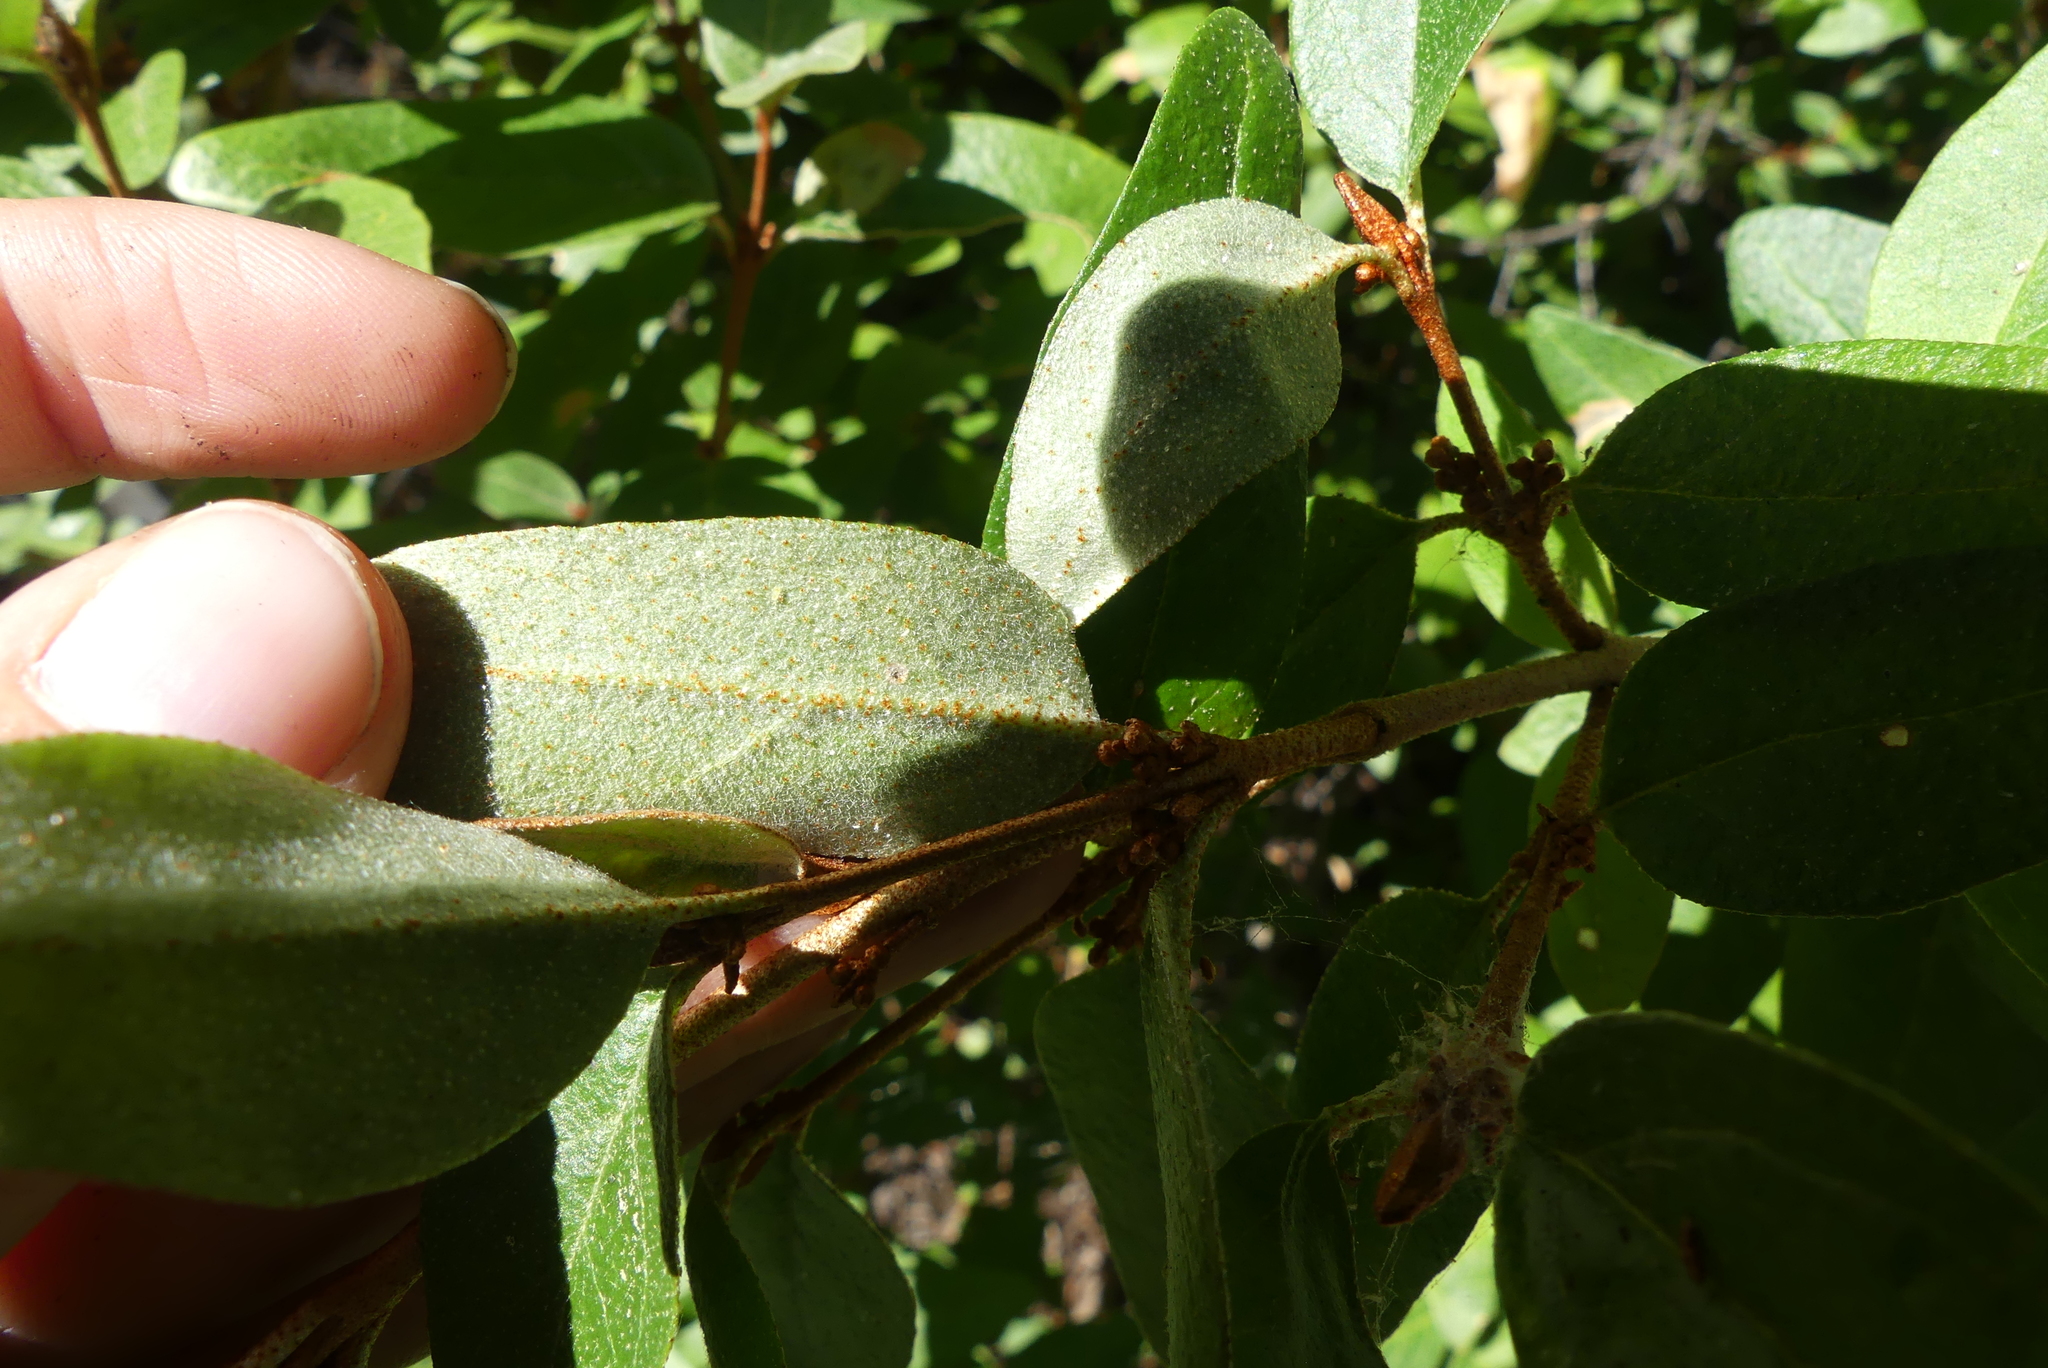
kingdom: Plantae
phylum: Tracheophyta
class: Magnoliopsida
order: Rosales
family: Elaeagnaceae
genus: Shepherdia
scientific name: Shepherdia canadensis
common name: Soapberry
